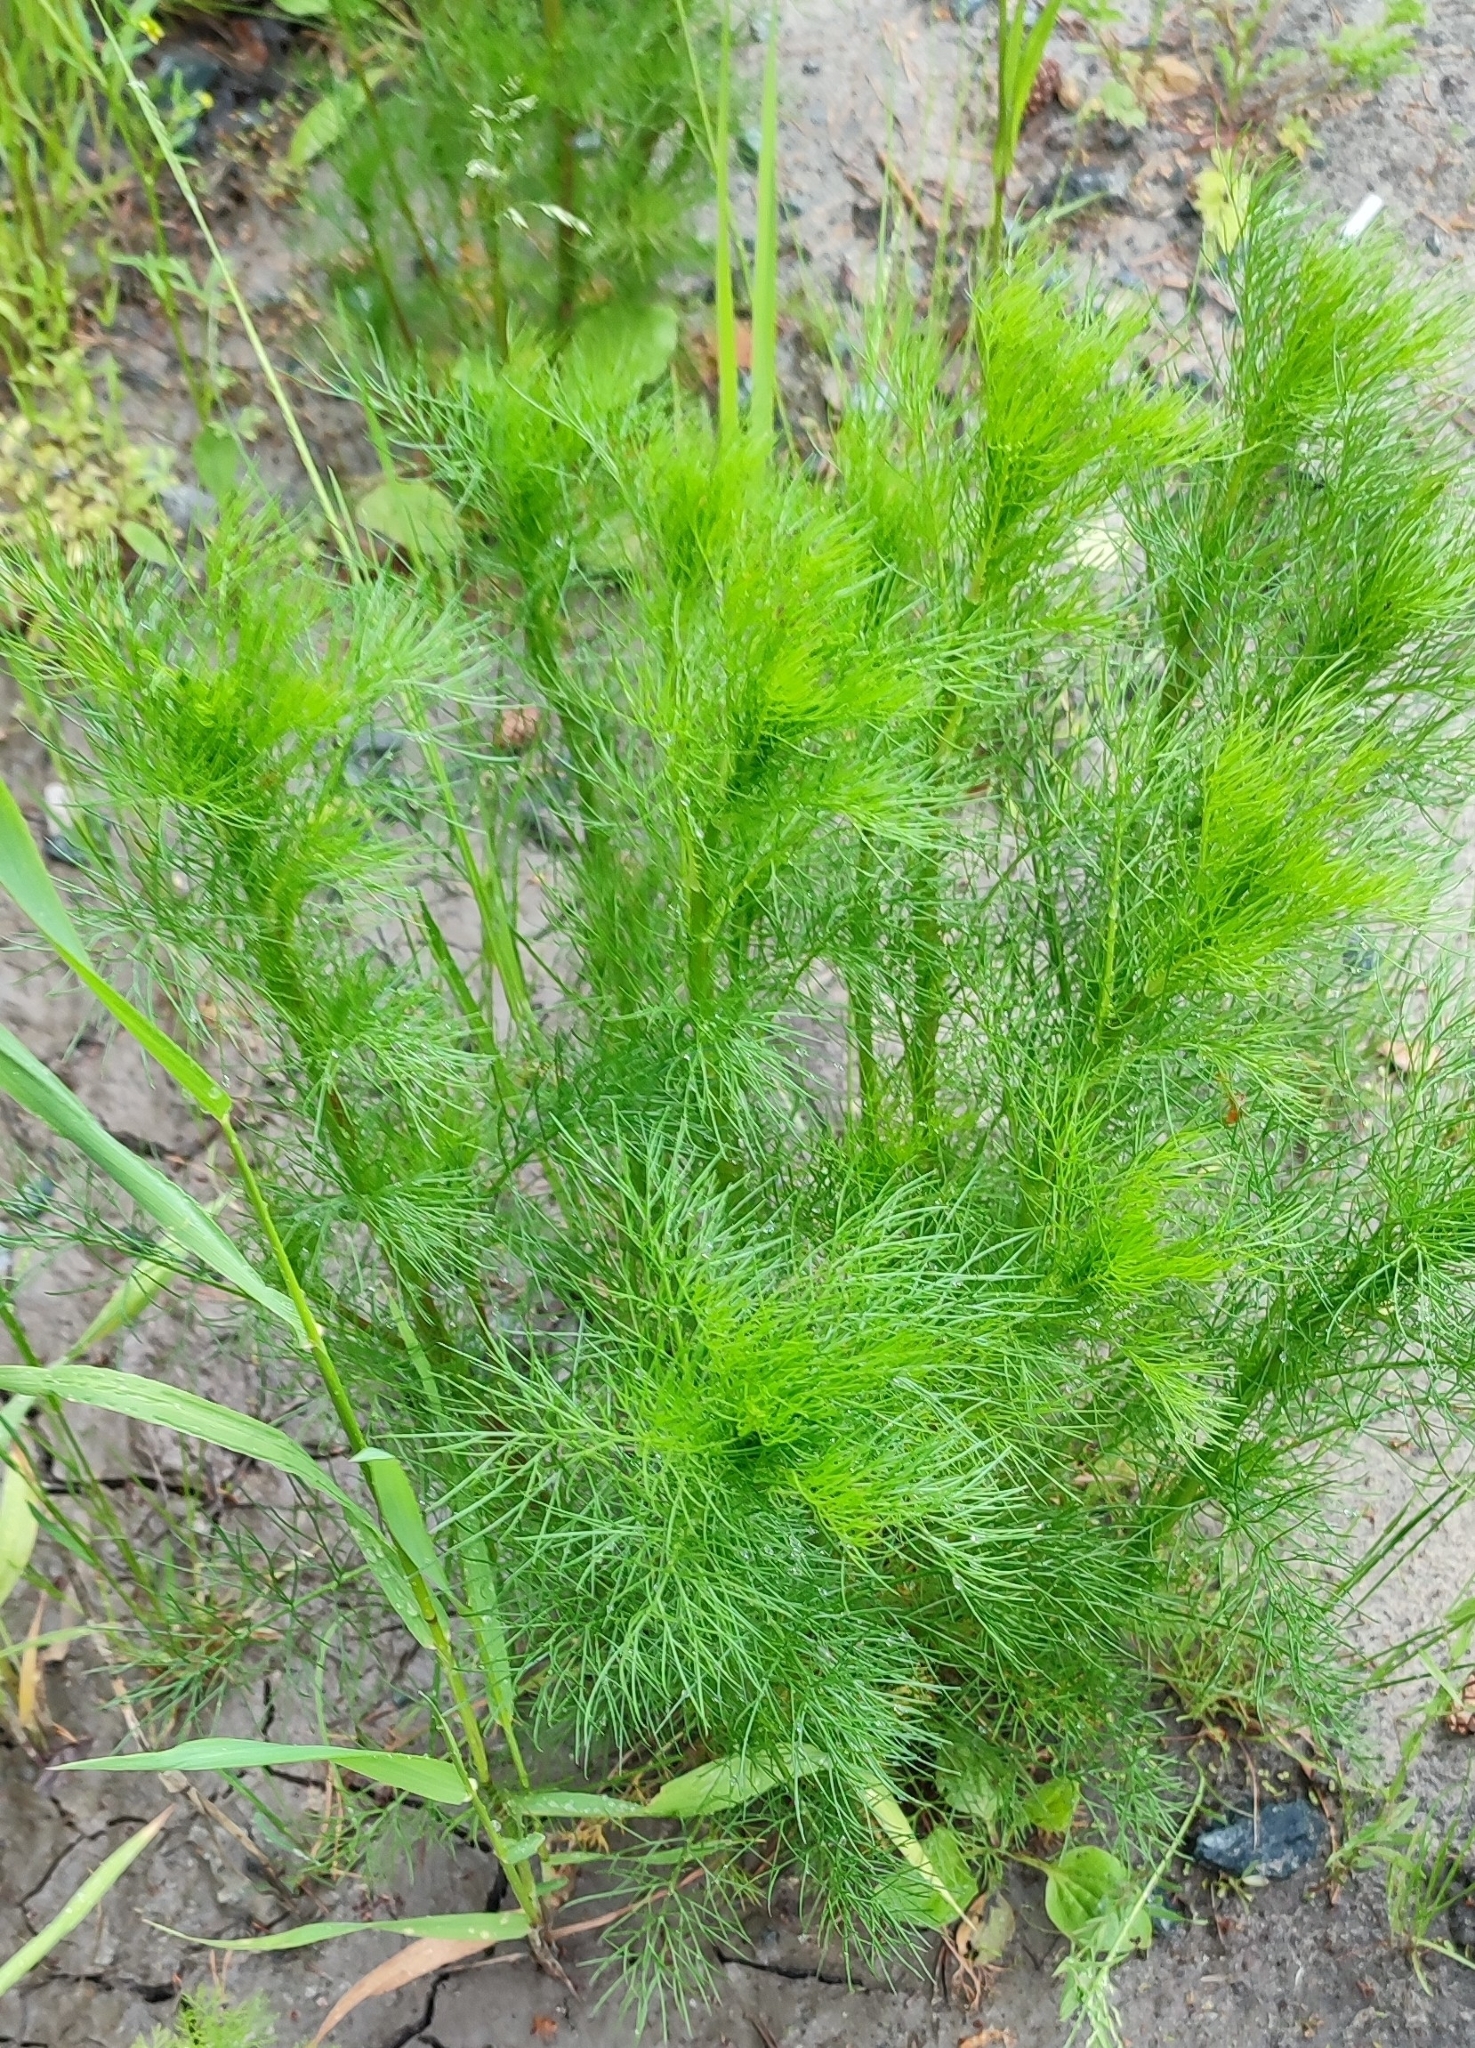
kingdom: Plantae
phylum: Tracheophyta
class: Magnoliopsida
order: Asterales
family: Asteraceae
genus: Tripleurospermum
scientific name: Tripleurospermum inodorum
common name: Scentless mayweed
